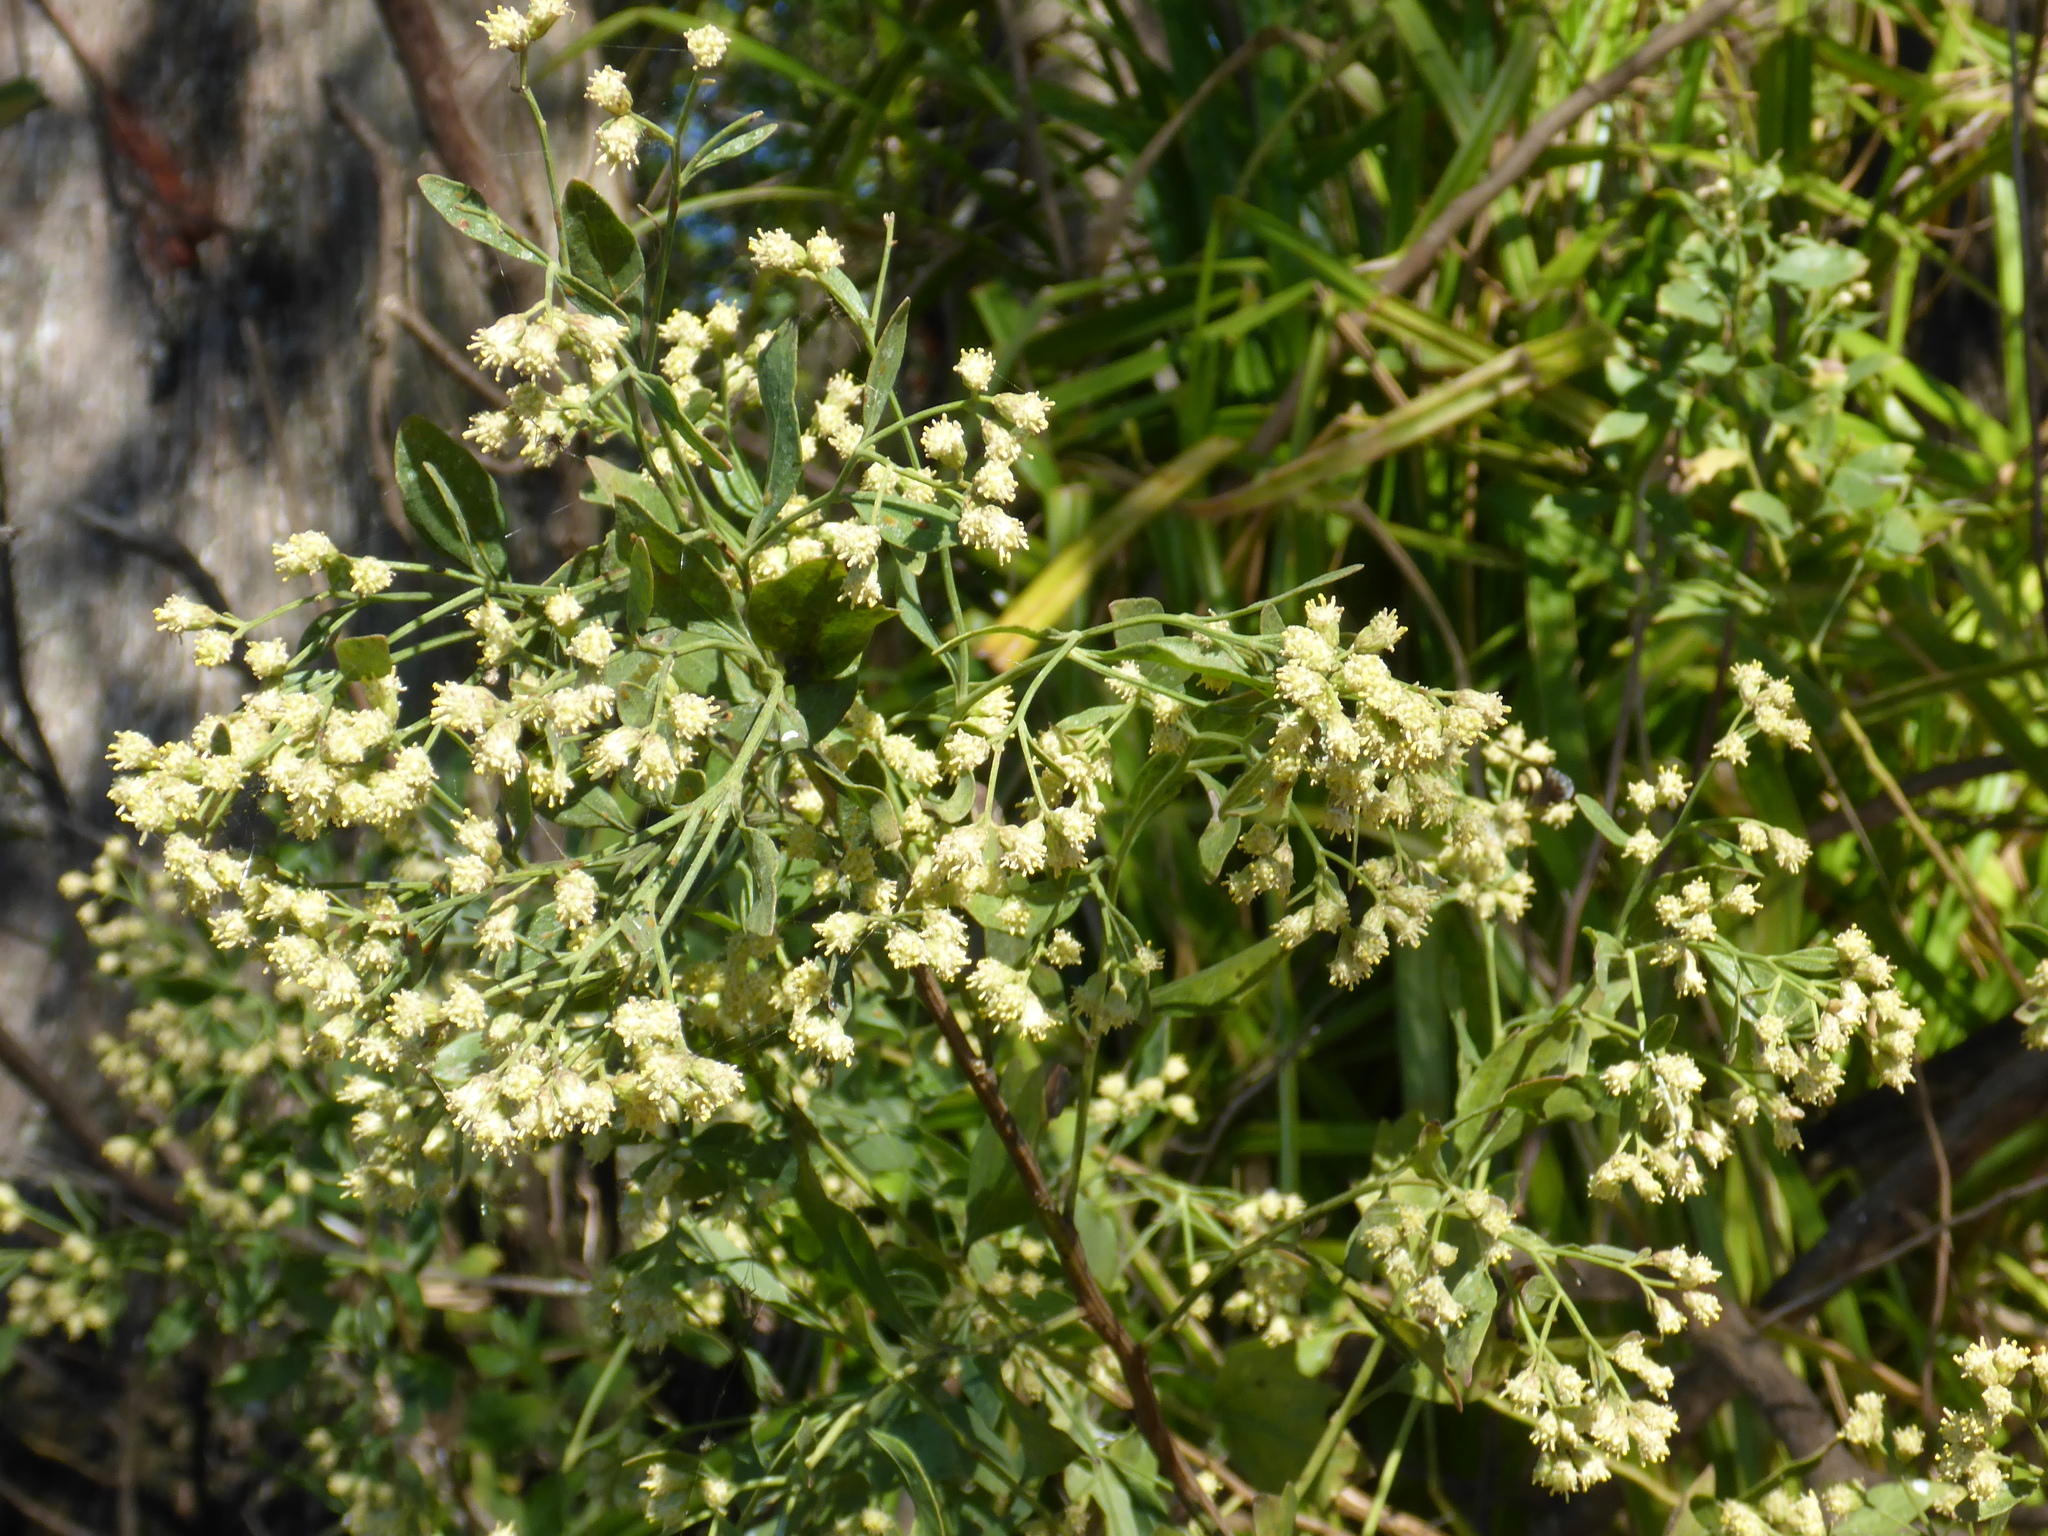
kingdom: Plantae
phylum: Tracheophyta
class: Magnoliopsida
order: Asterales
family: Asteraceae
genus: Baccharis
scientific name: Baccharis halimifolia
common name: Eastern baccharis
